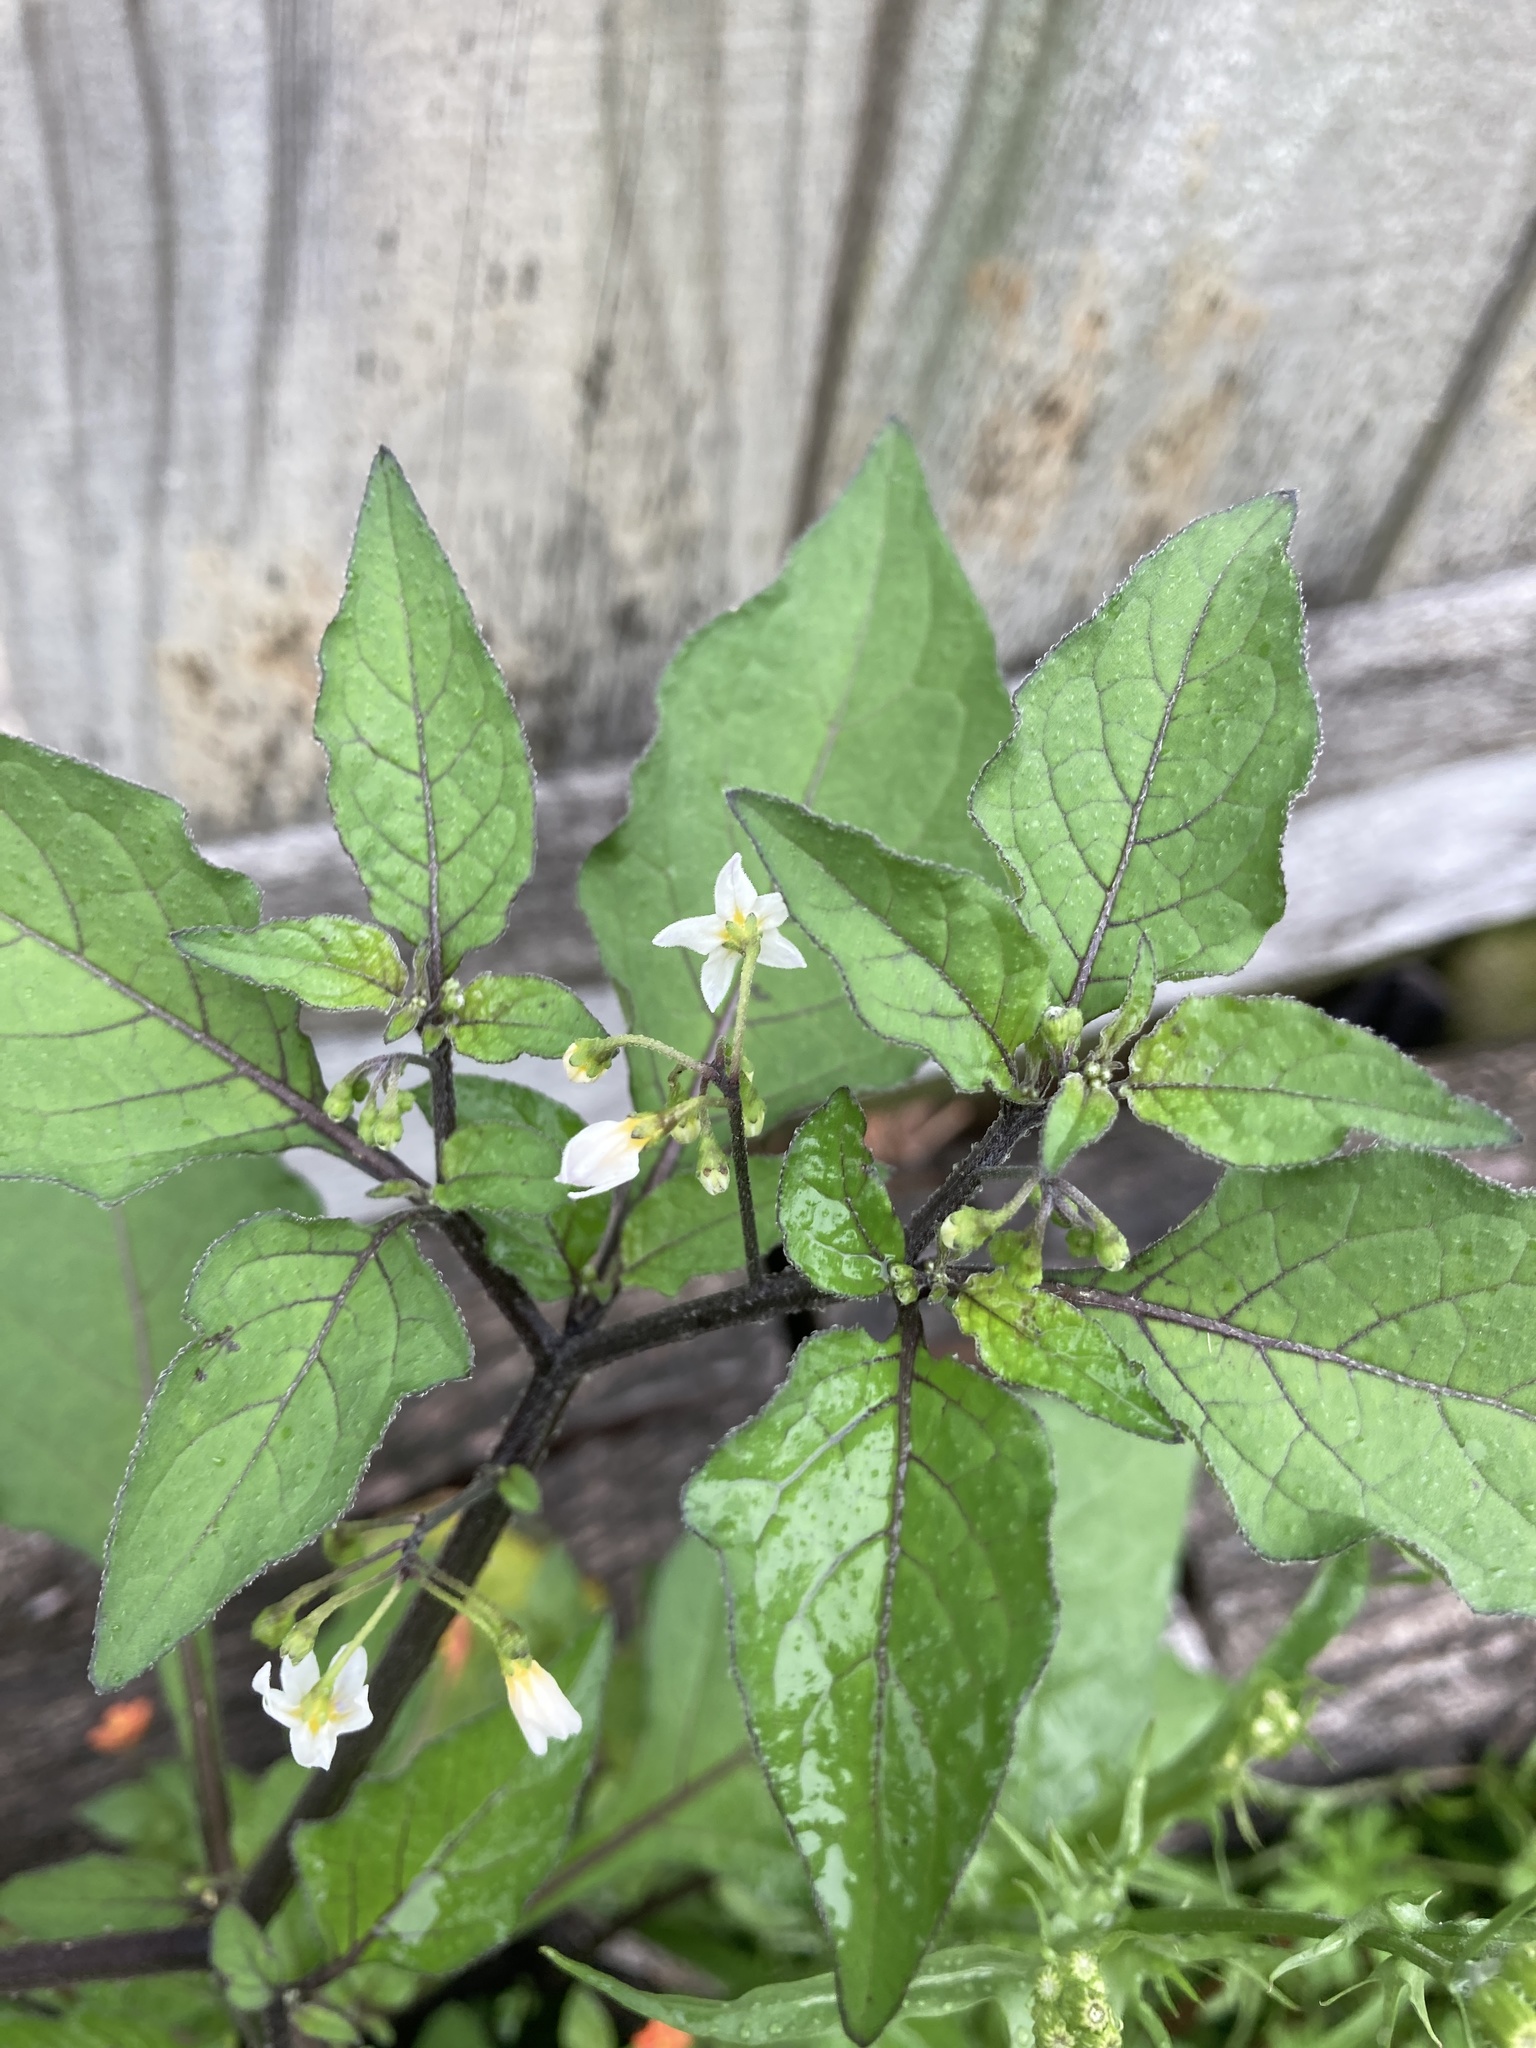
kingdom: Plantae
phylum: Tracheophyta
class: Magnoliopsida
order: Solanales
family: Solanaceae
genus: Solanum
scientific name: Solanum nigrum
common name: Black nightshade
